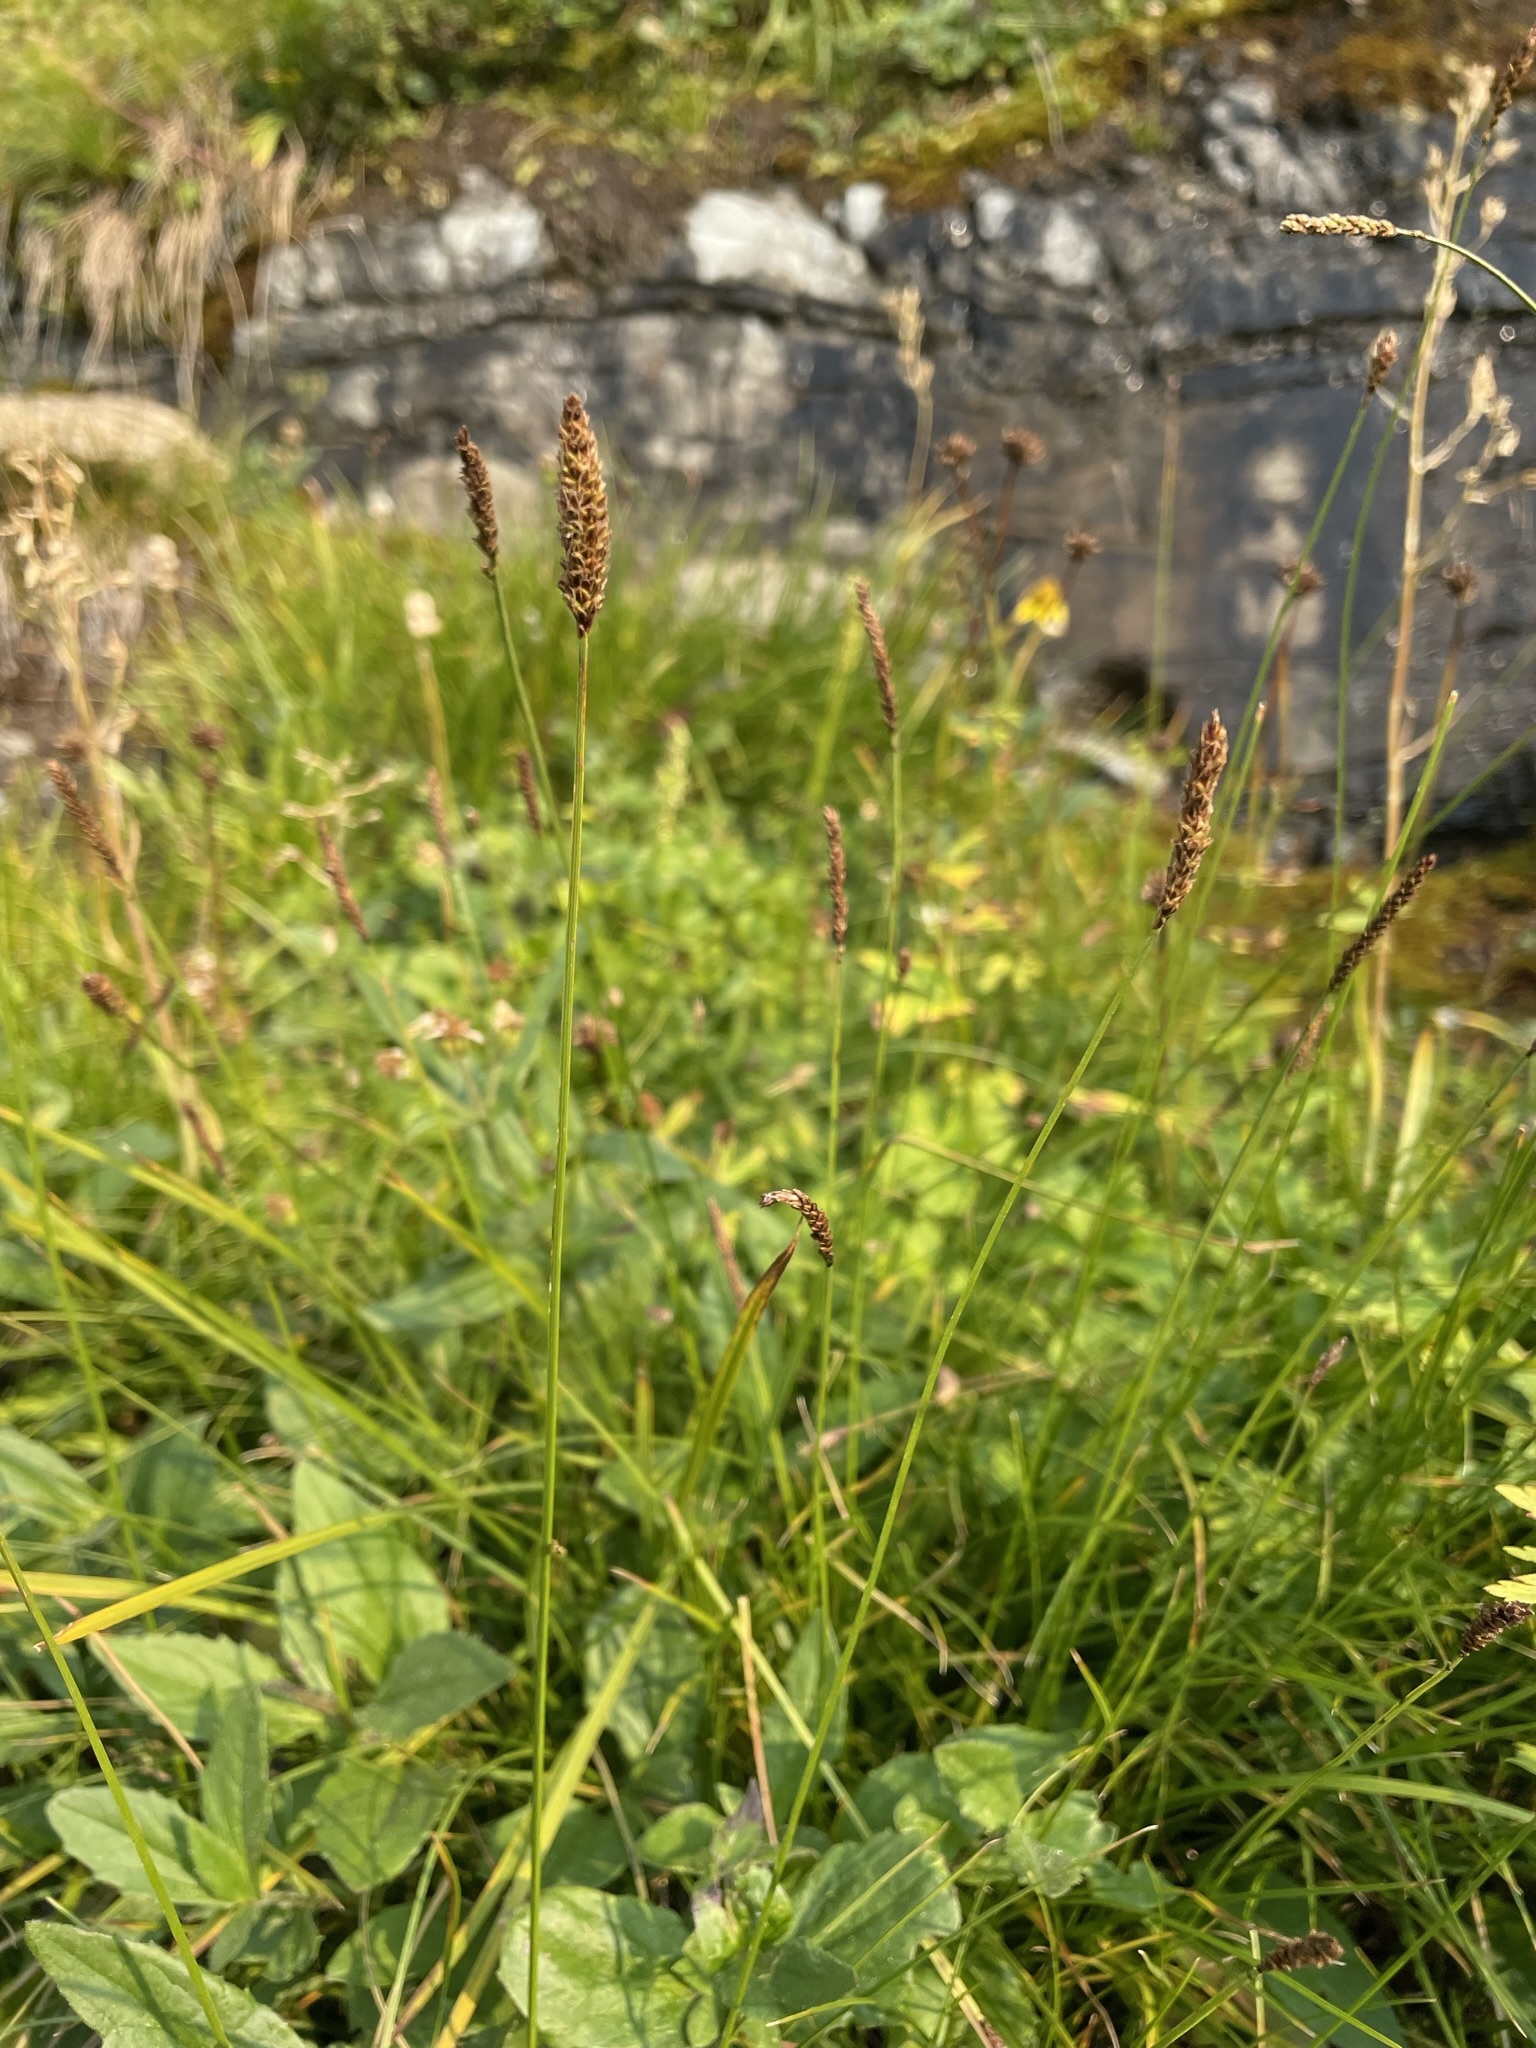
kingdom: Plantae
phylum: Tracheophyta
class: Liliopsida
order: Poales
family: Cyperaceae
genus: Carex
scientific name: Carex scirpoidea
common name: Canada single-spike sedge
